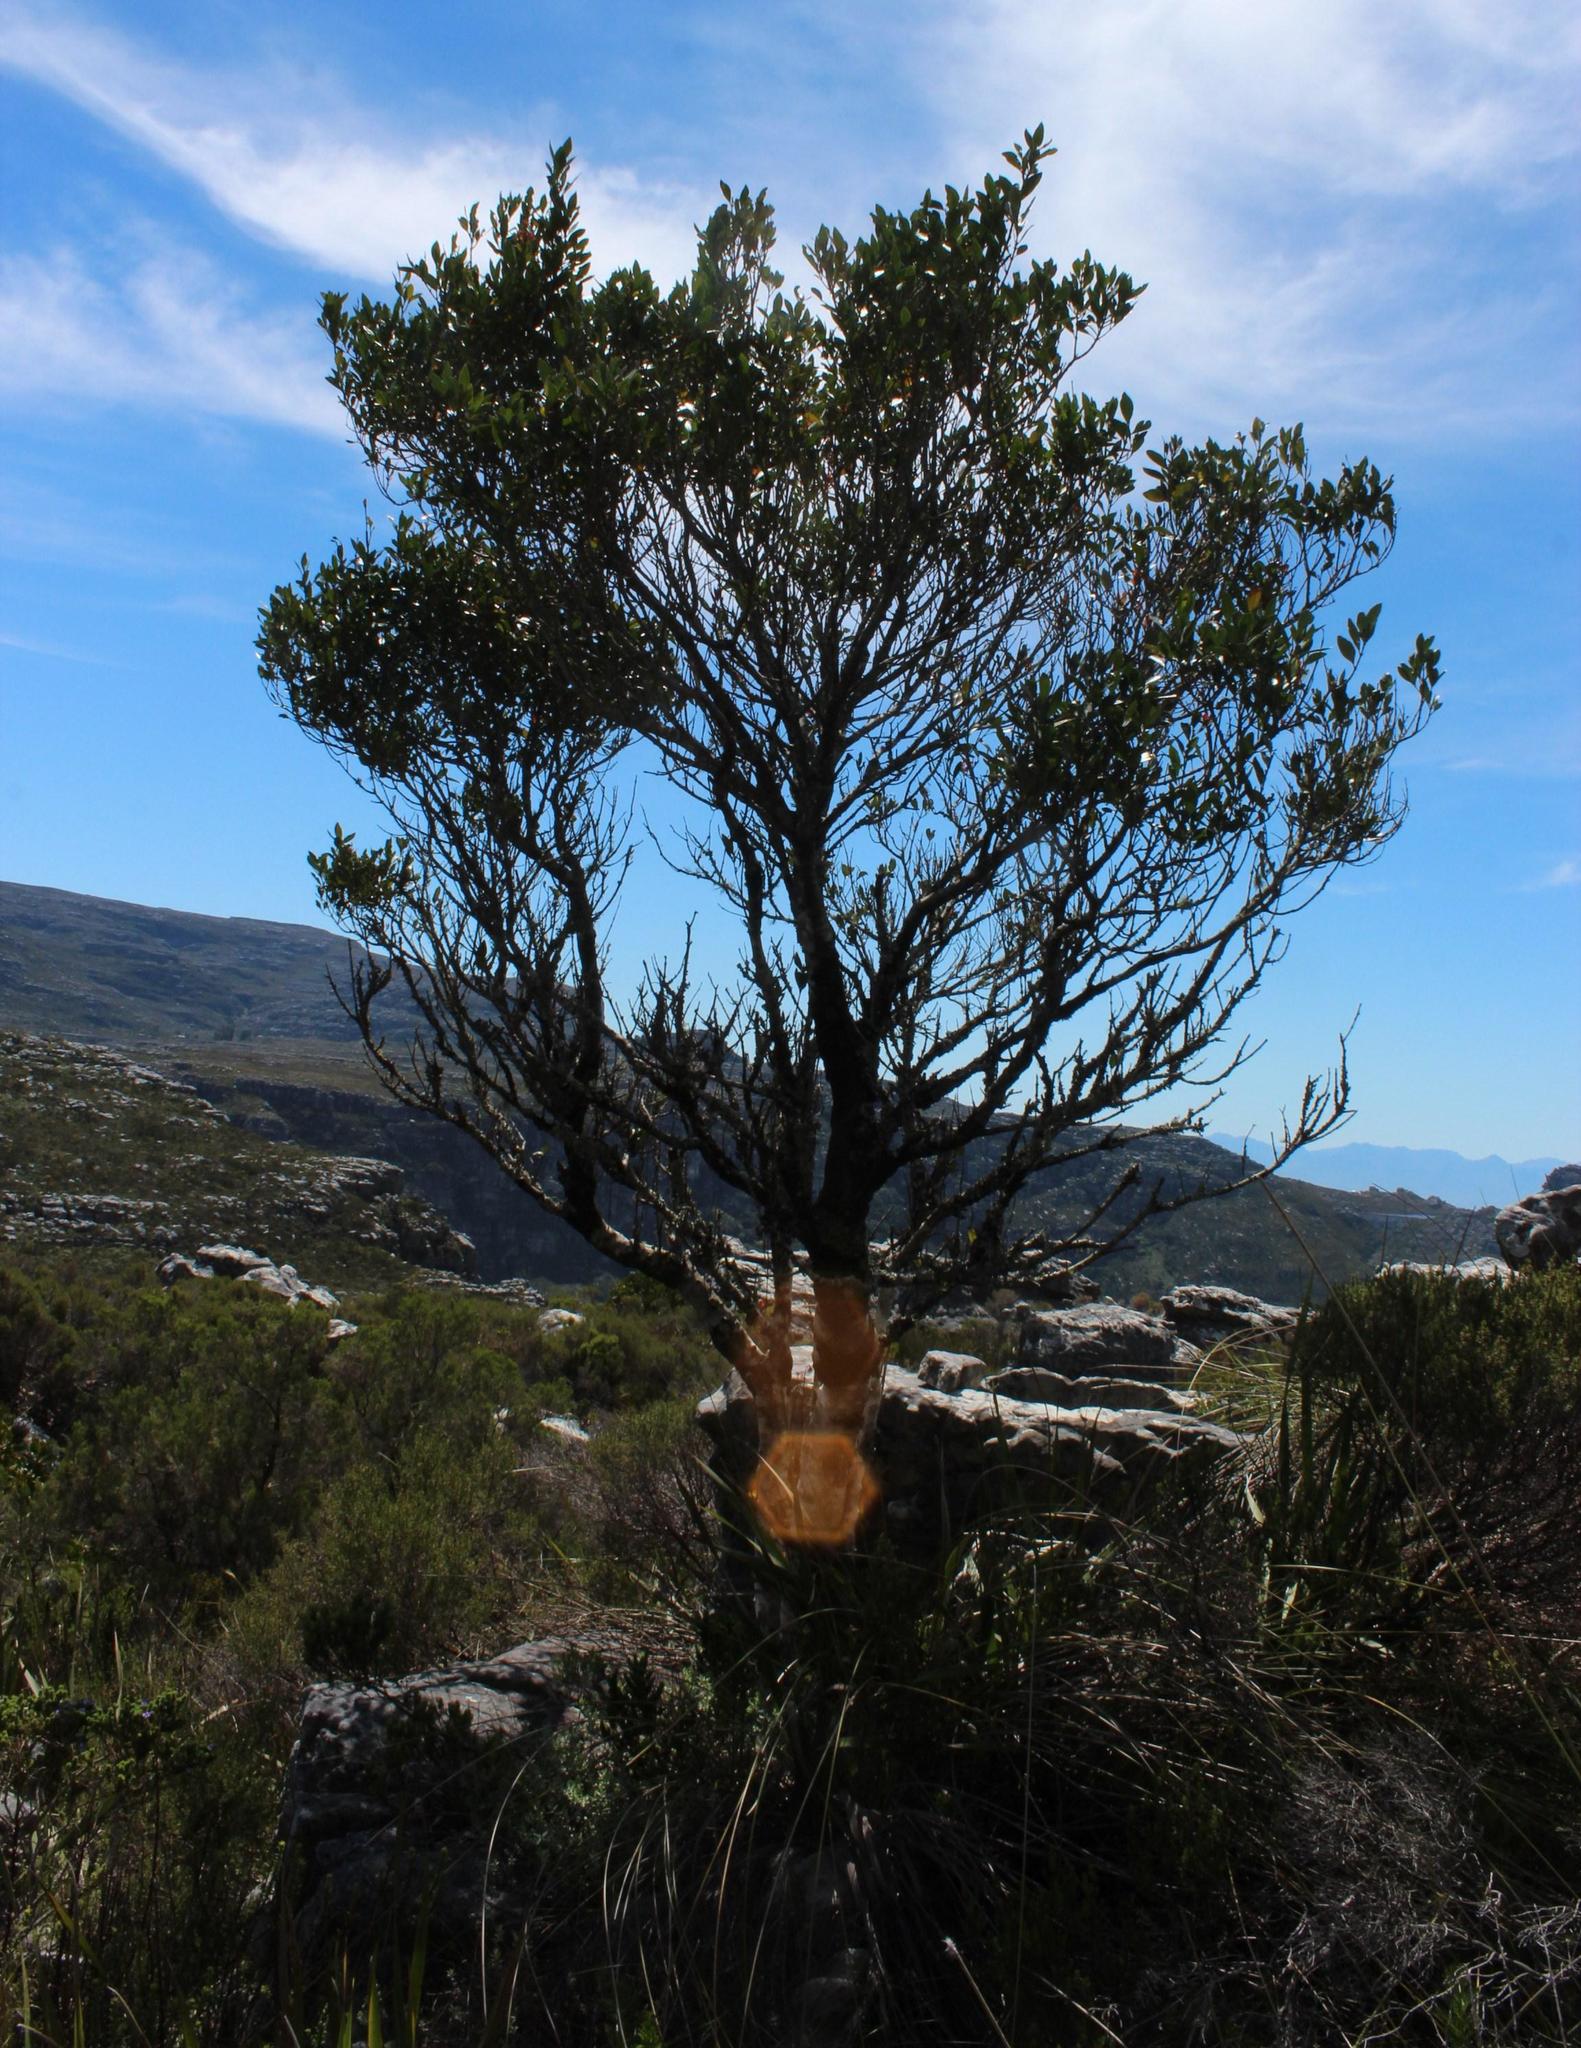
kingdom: Plantae
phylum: Tracheophyta
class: Magnoliopsida
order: Celastrales
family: Celastraceae
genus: Elaeodendron
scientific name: Elaeodendron schinoides
